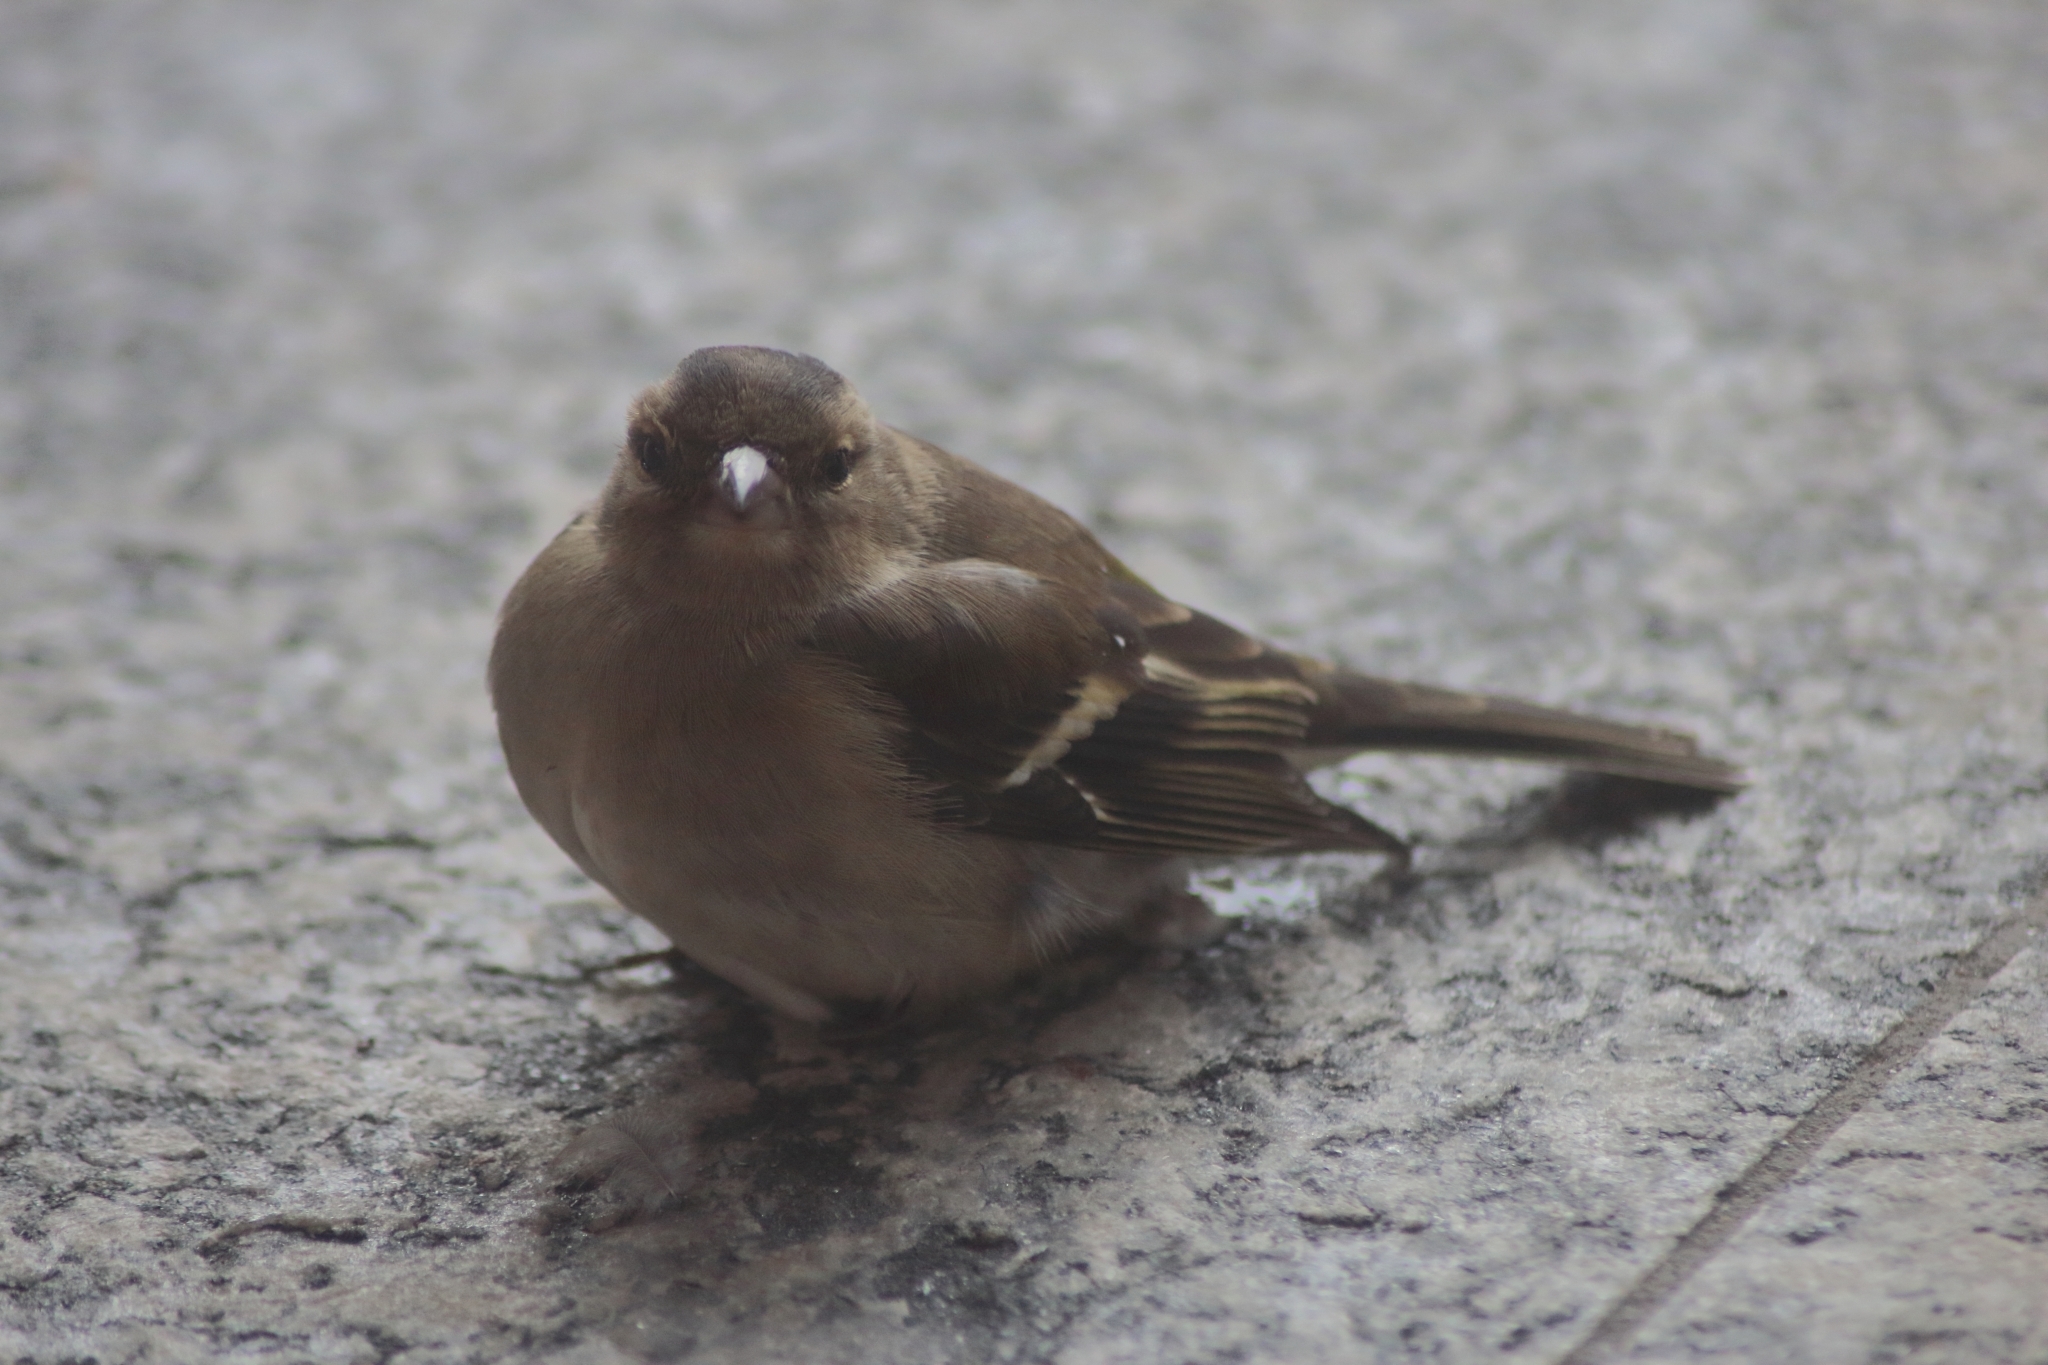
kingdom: Animalia
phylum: Chordata
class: Aves
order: Passeriformes
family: Fringillidae
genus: Fringilla
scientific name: Fringilla coelebs
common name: Common chaffinch
